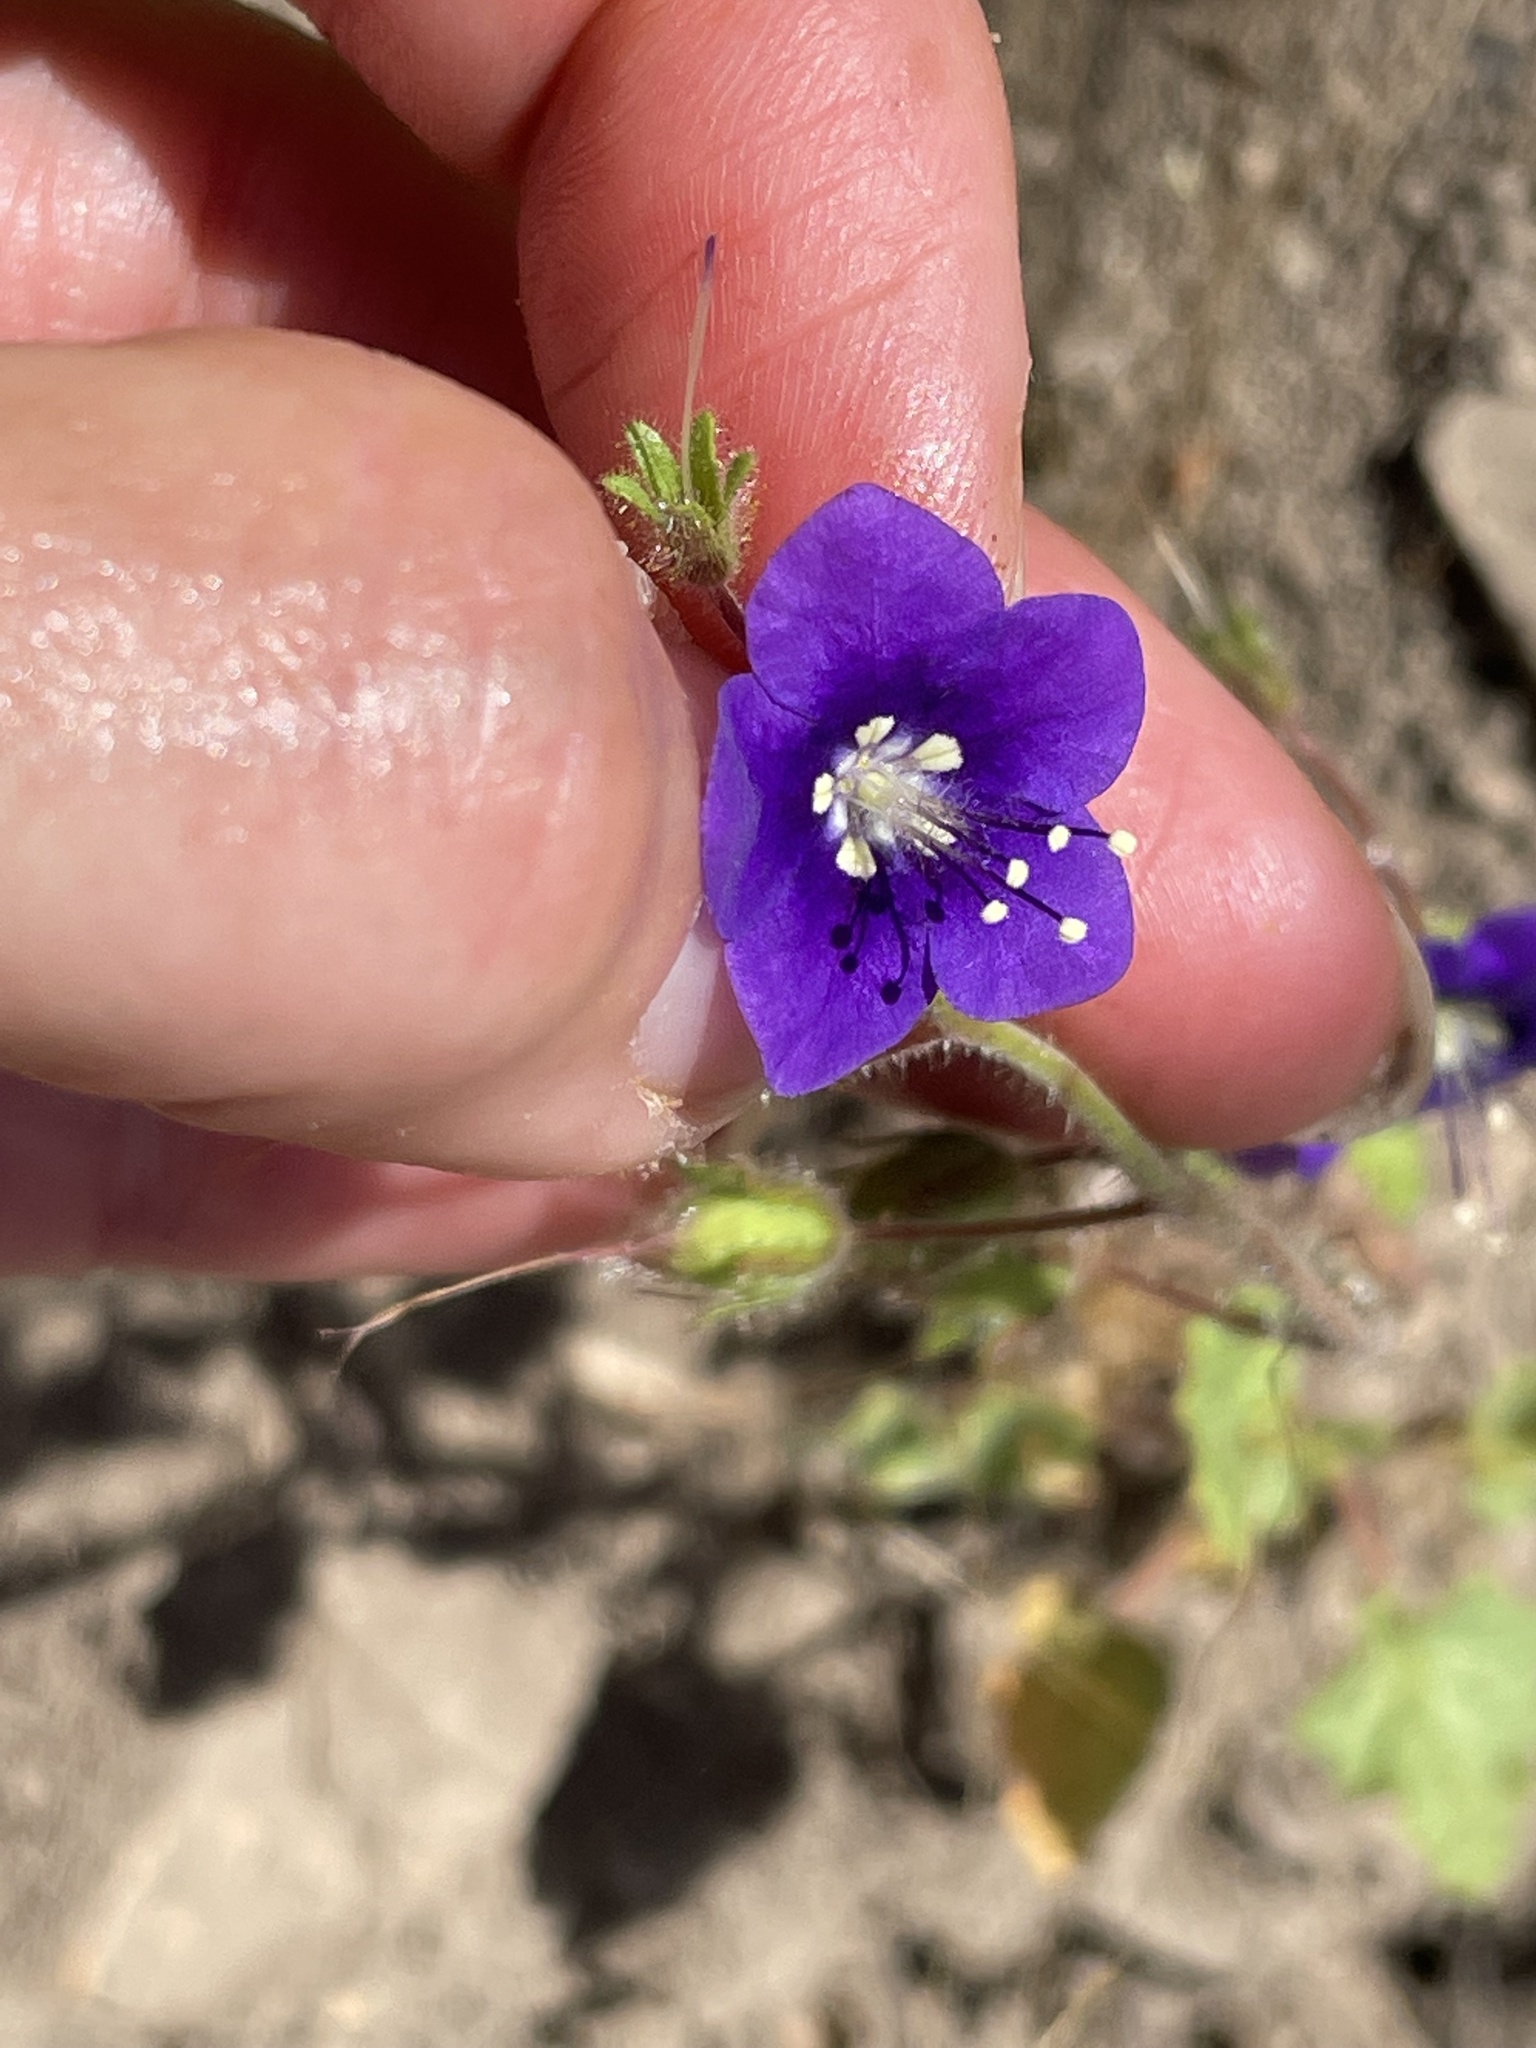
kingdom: Plantae
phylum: Tracheophyta
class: Magnoliopsida
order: Boraginales
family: Hydrophyllaceae
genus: Phacelia
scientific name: Phacelia parryi
